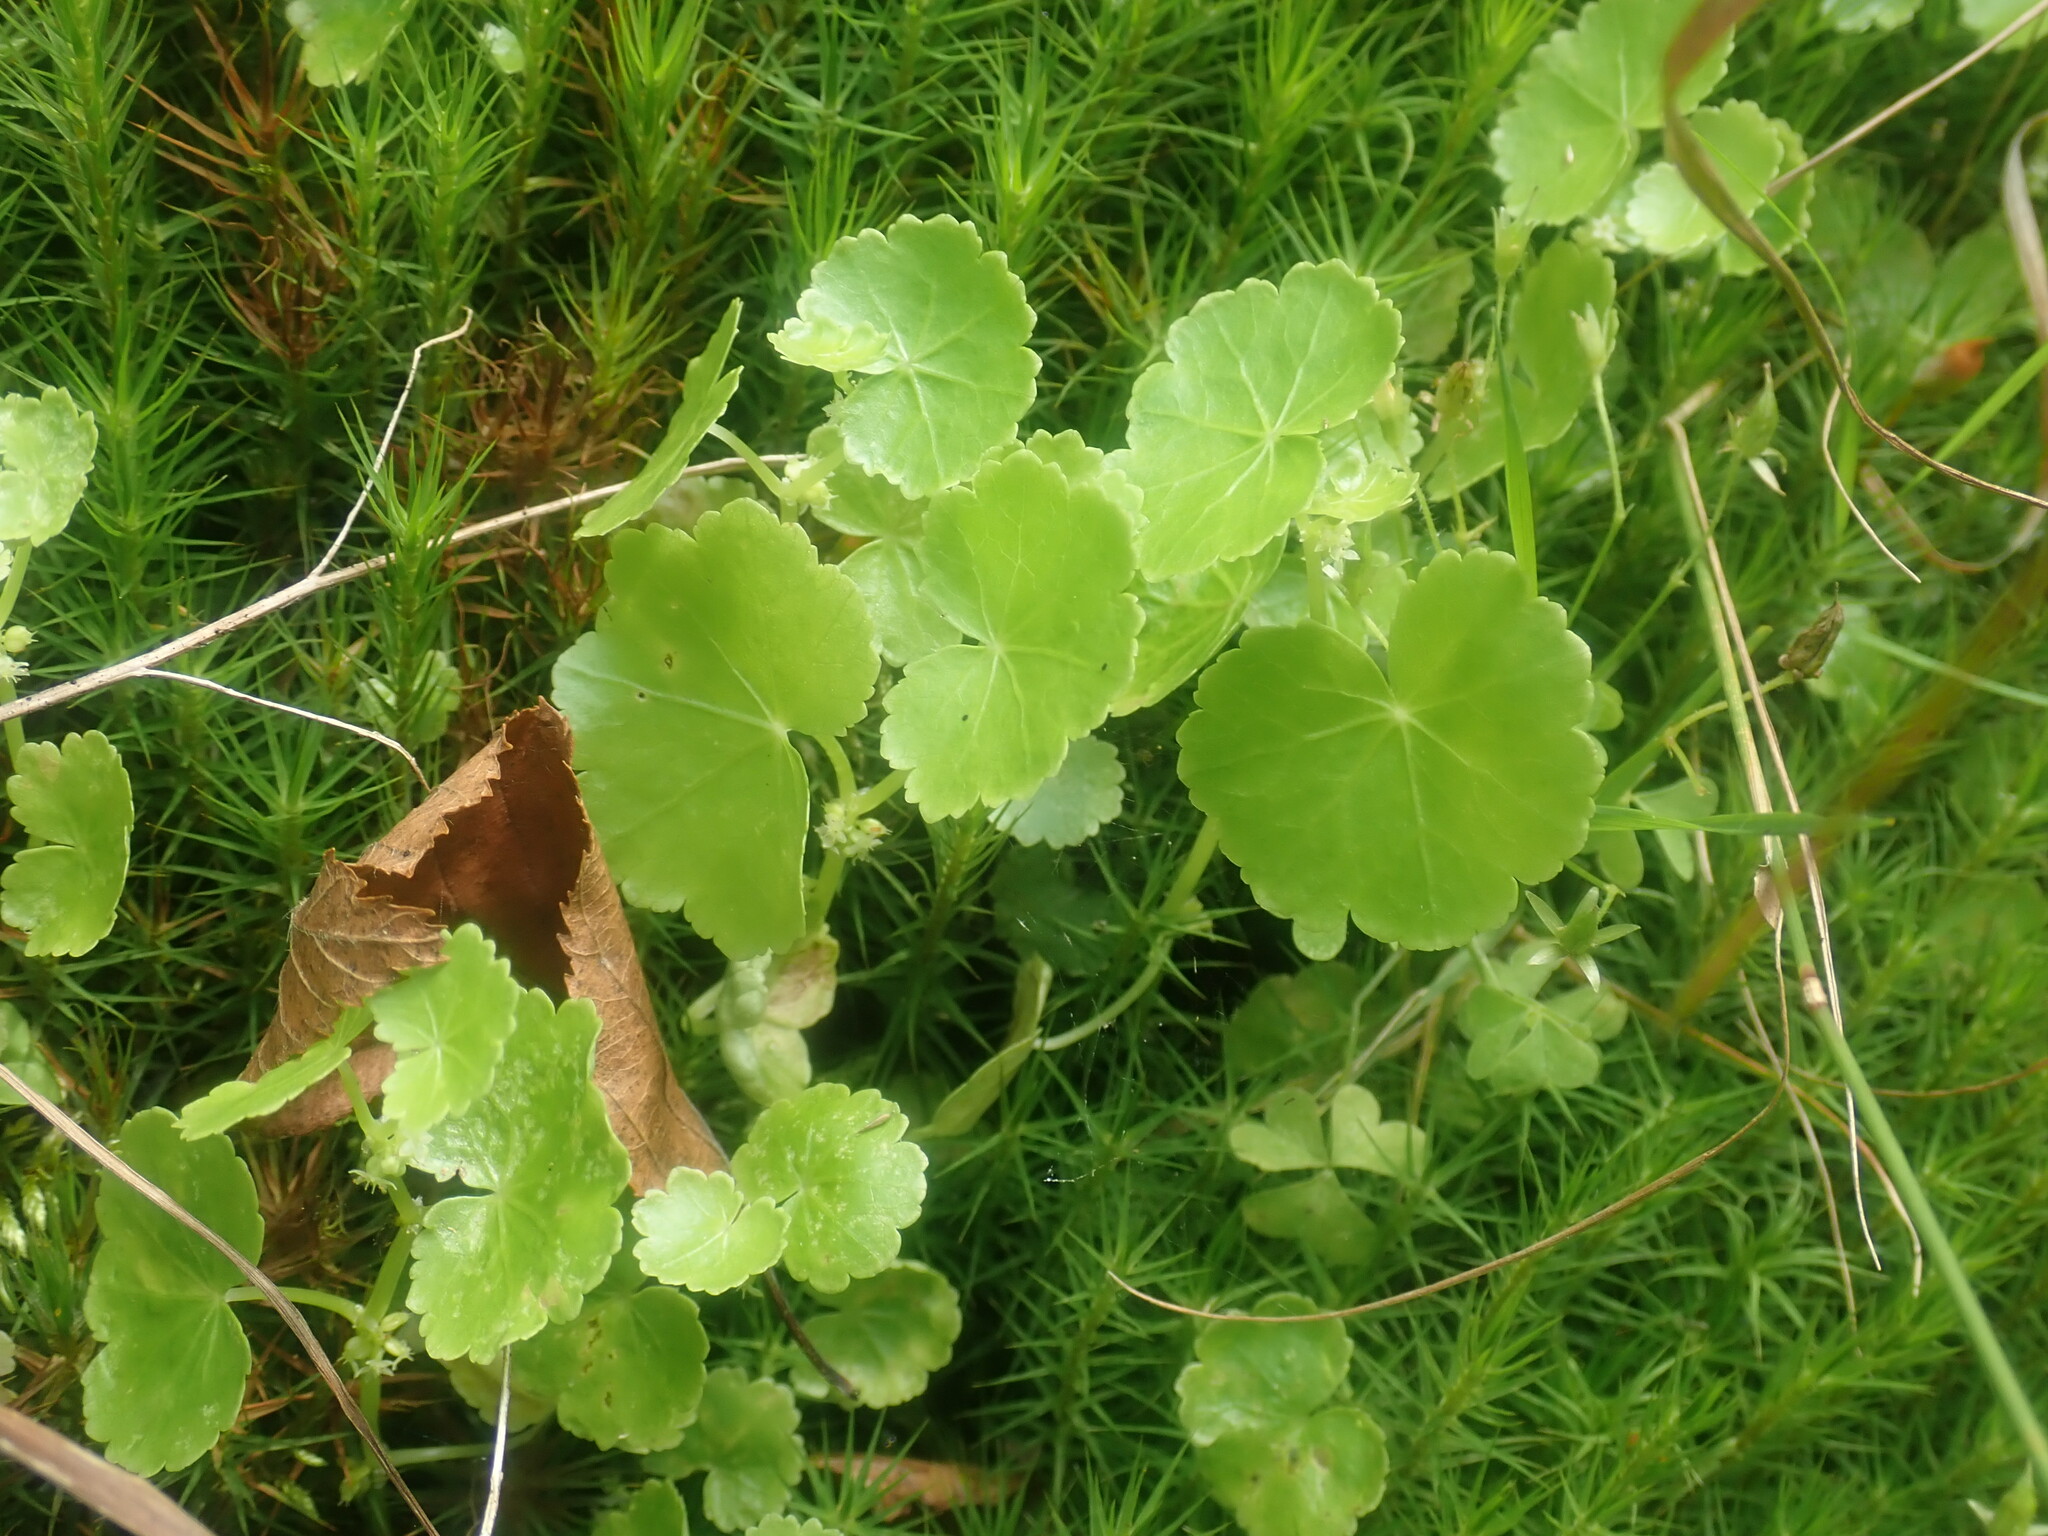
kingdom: Plantae
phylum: Tracheophyta
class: Magnoliopsida
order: Apiales
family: Araliaceae
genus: Hydrocotyle
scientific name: Hydrocotyle americana
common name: American water-pennywort
